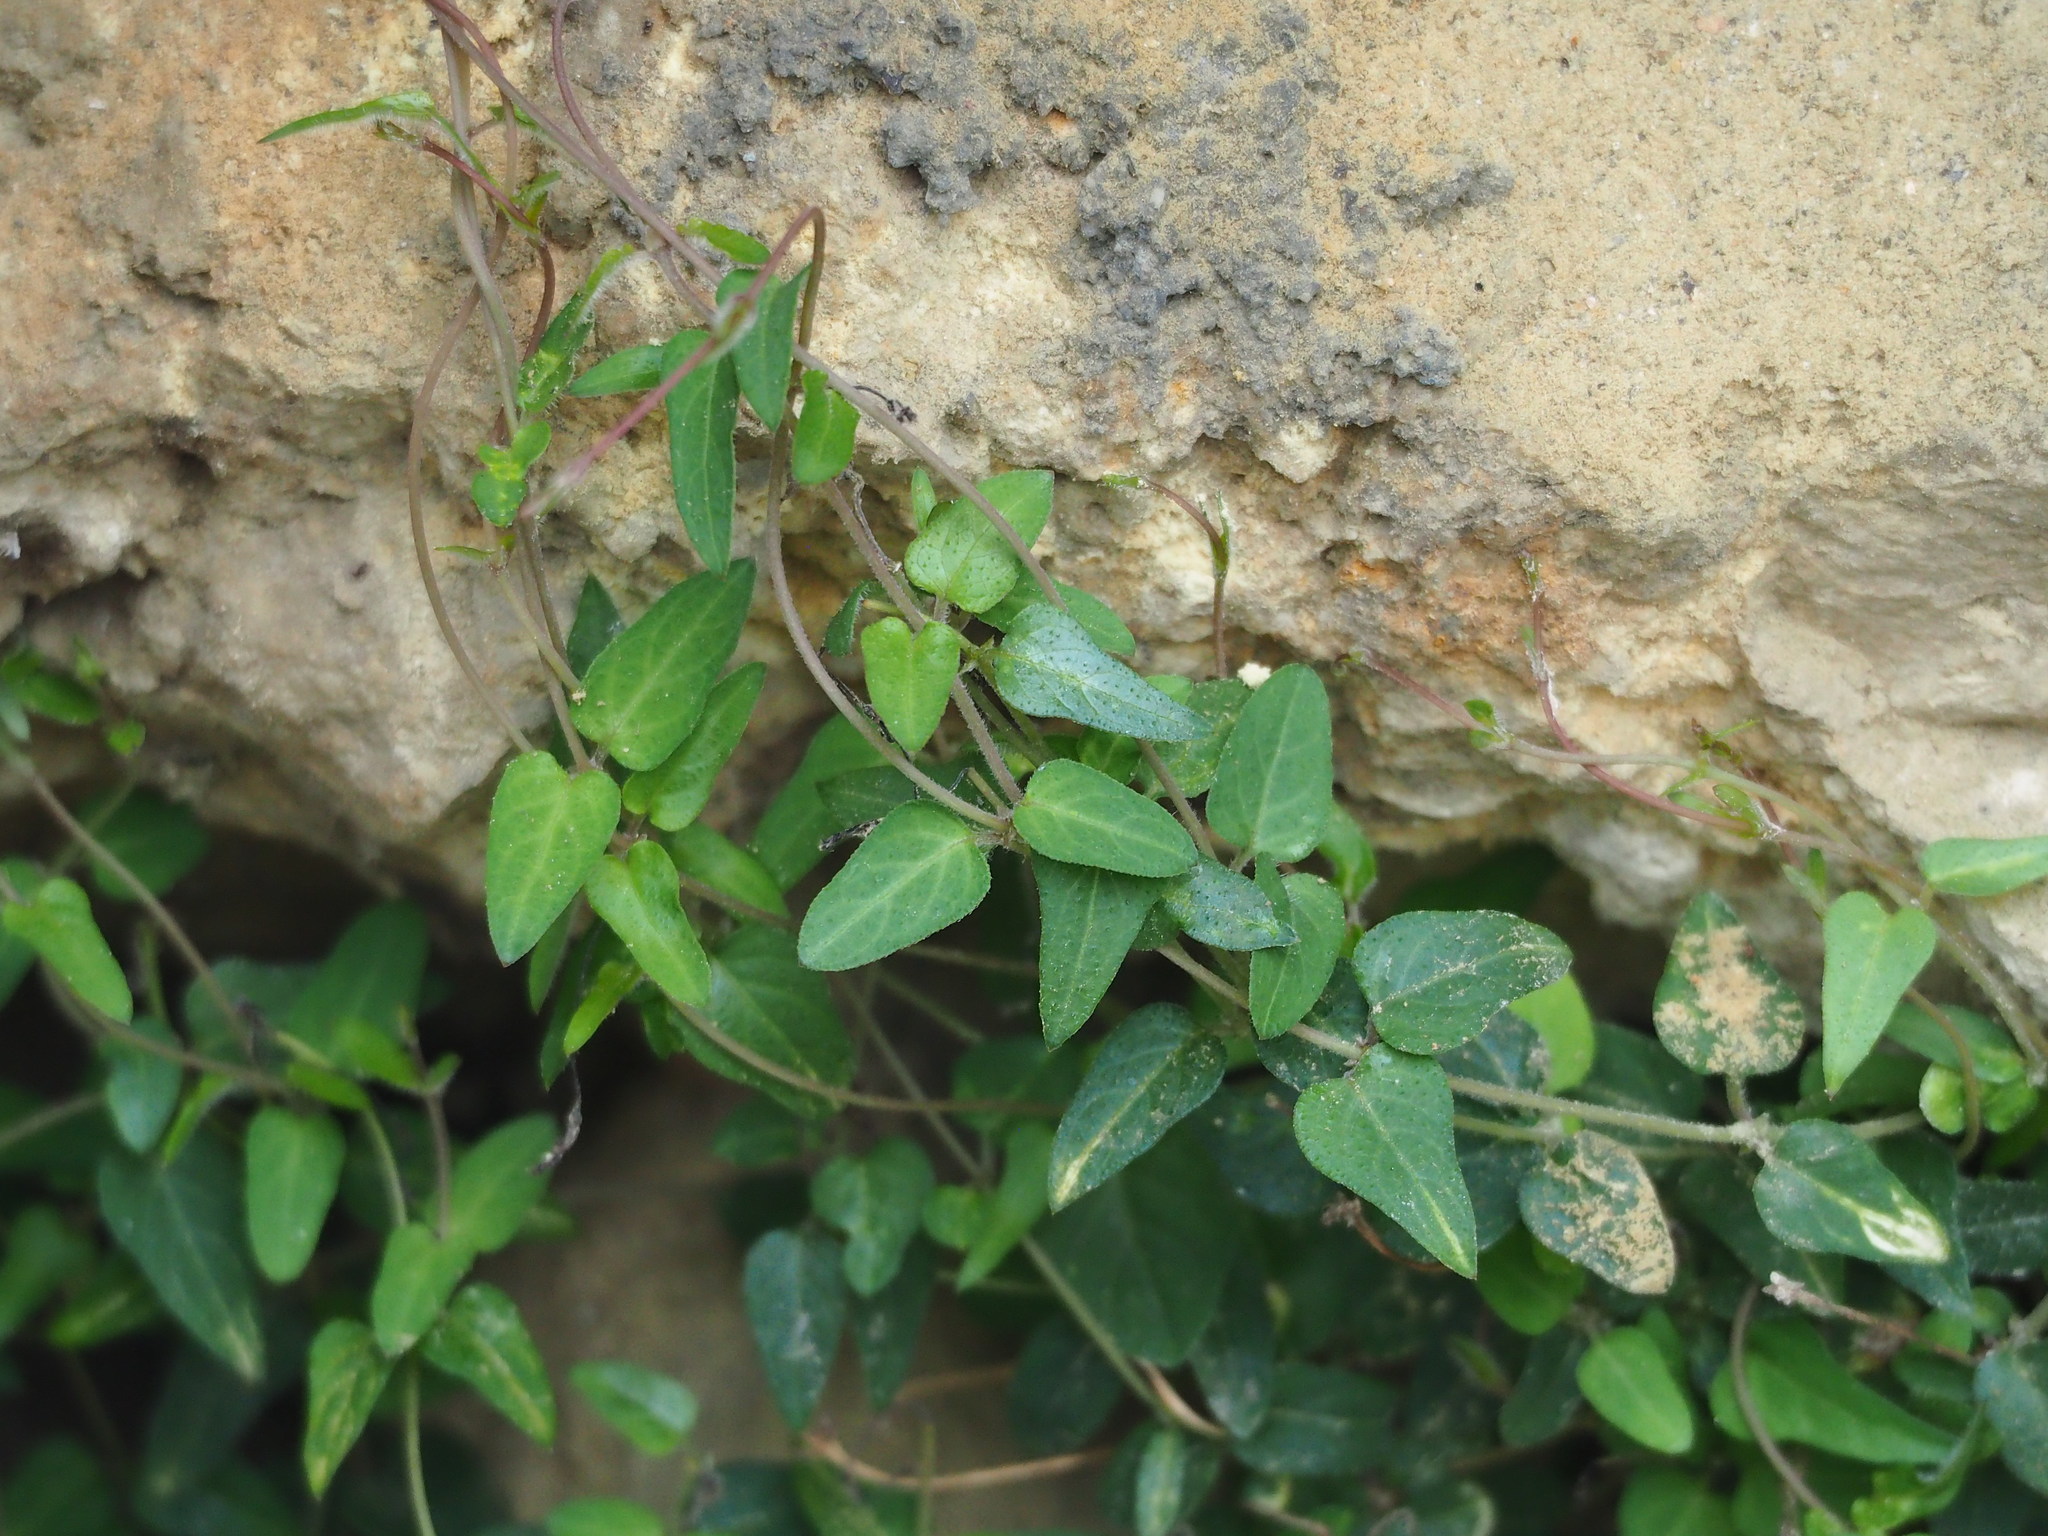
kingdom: Plantae
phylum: Tracheophyta
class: Magnoliopsida
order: Gentianales
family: Rubiaceae
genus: Paederia
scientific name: Paederia foetida
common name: Stinkvine
